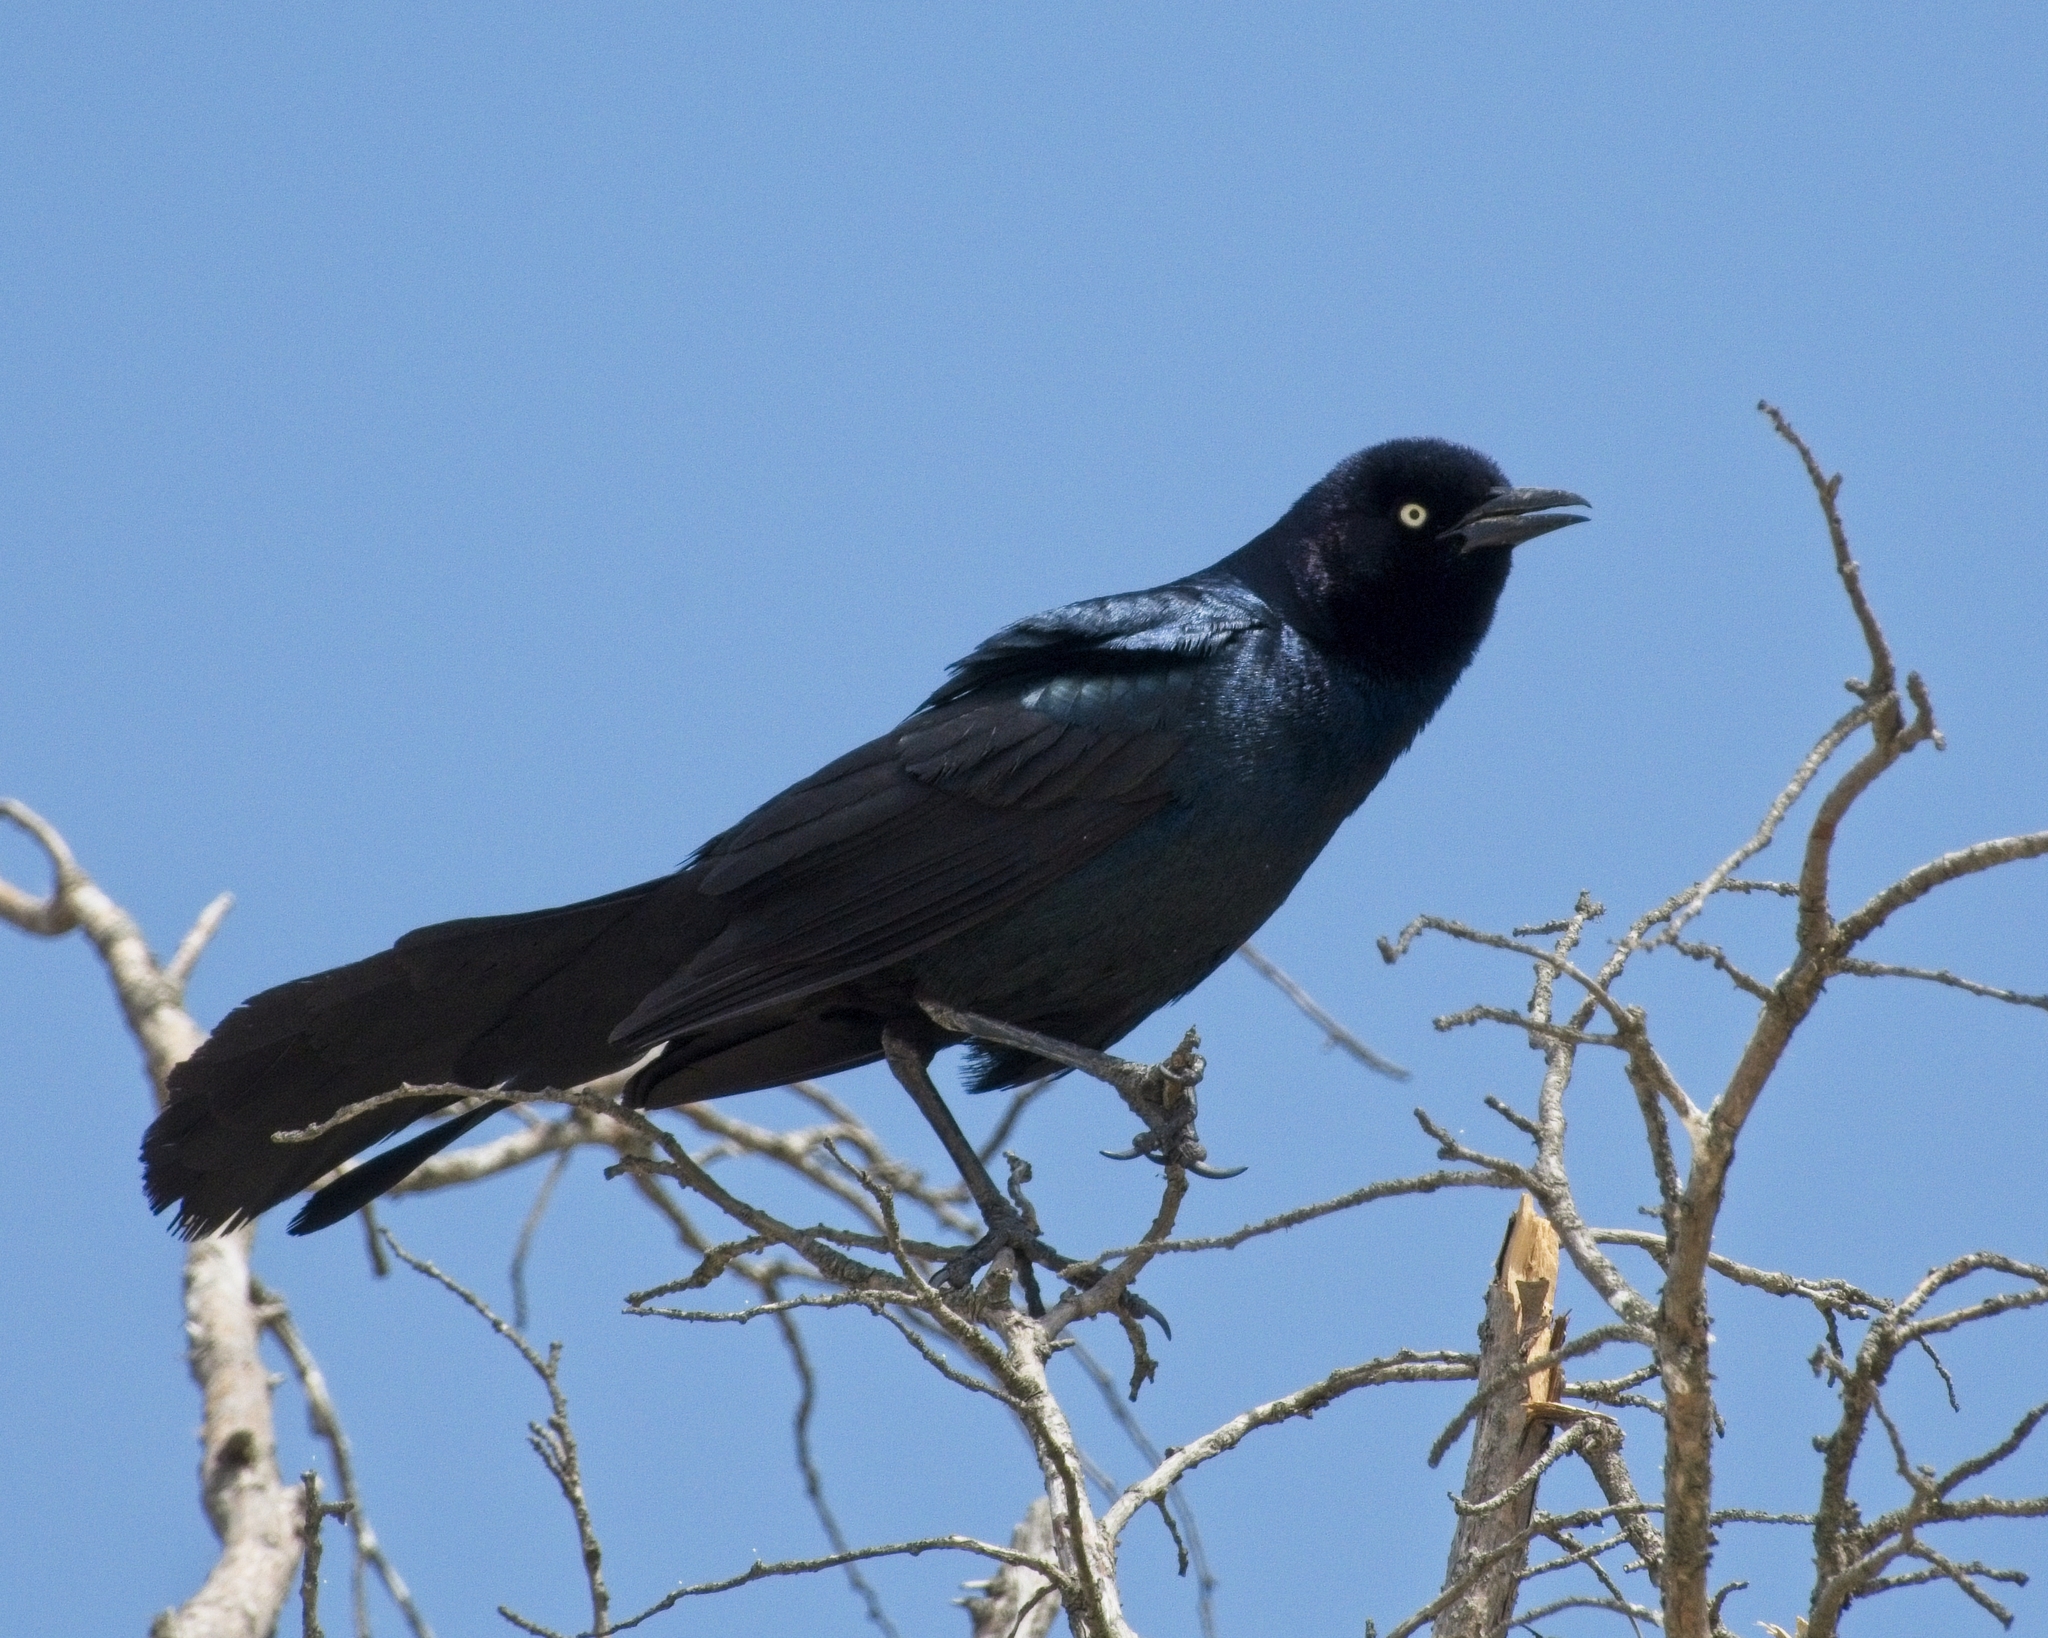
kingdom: Animalia
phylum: Chordata
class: Aves
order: Passeriformes
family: Icteridae
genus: Quiscalus
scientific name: Quiscalus major
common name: Boat-tailed grackle
